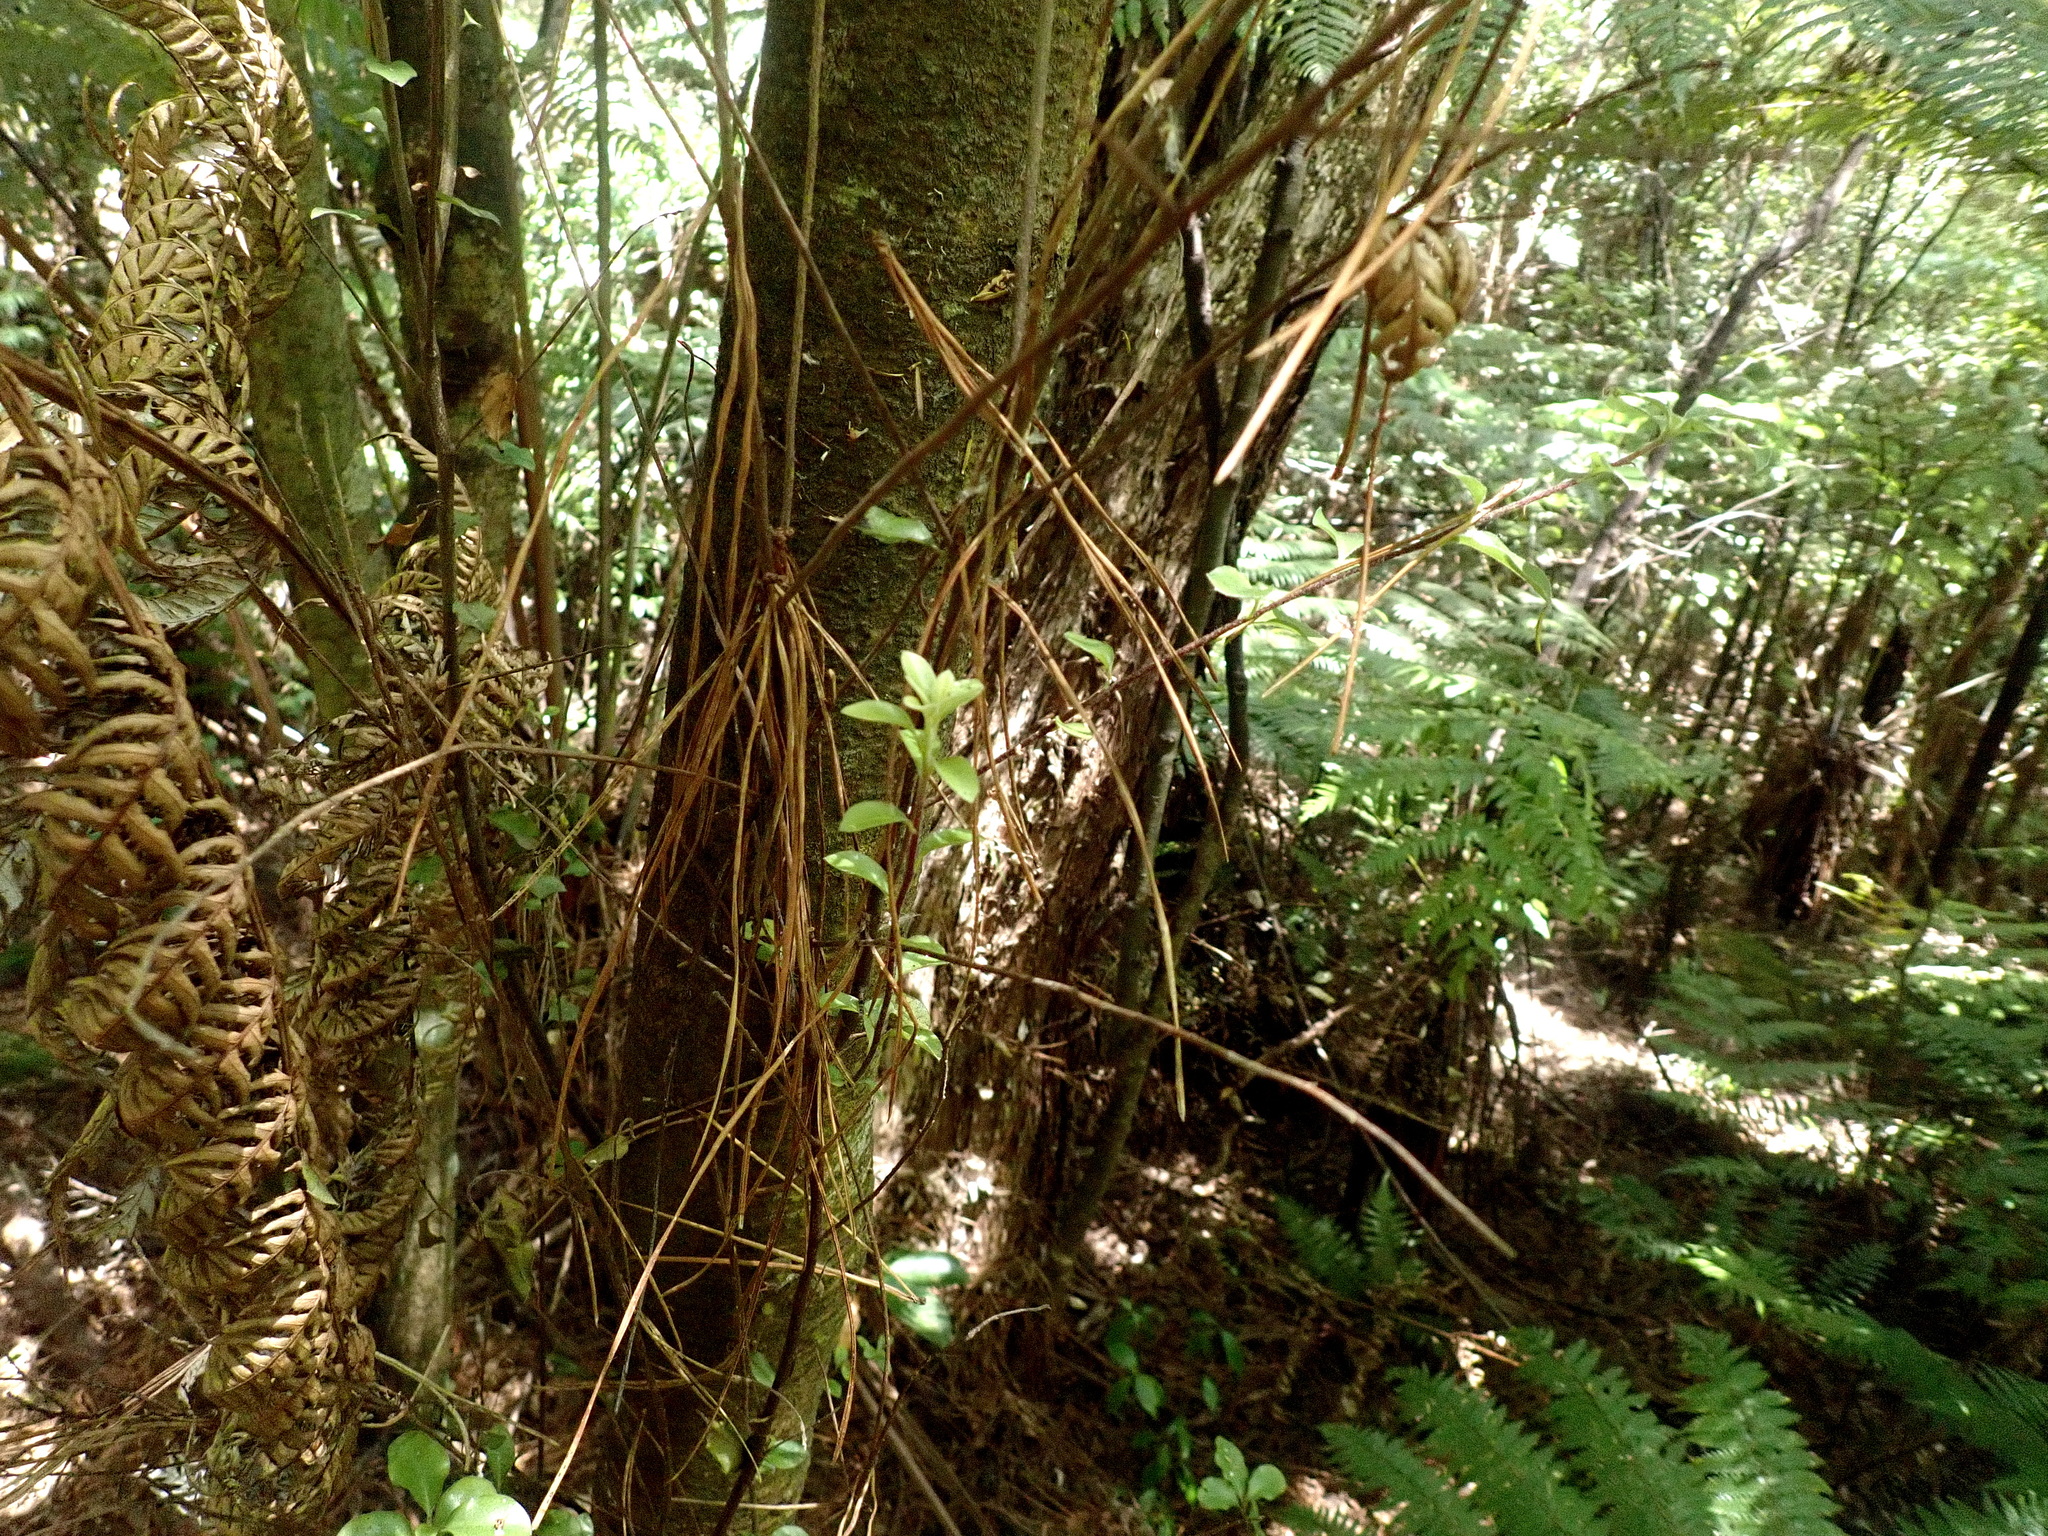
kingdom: Plantae
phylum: Tracheophyta
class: Magnoliopsida
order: Apiales
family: Pittosporaceae
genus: Pittosporum
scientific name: Pittosporum tenuifolium
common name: Kohuhu
